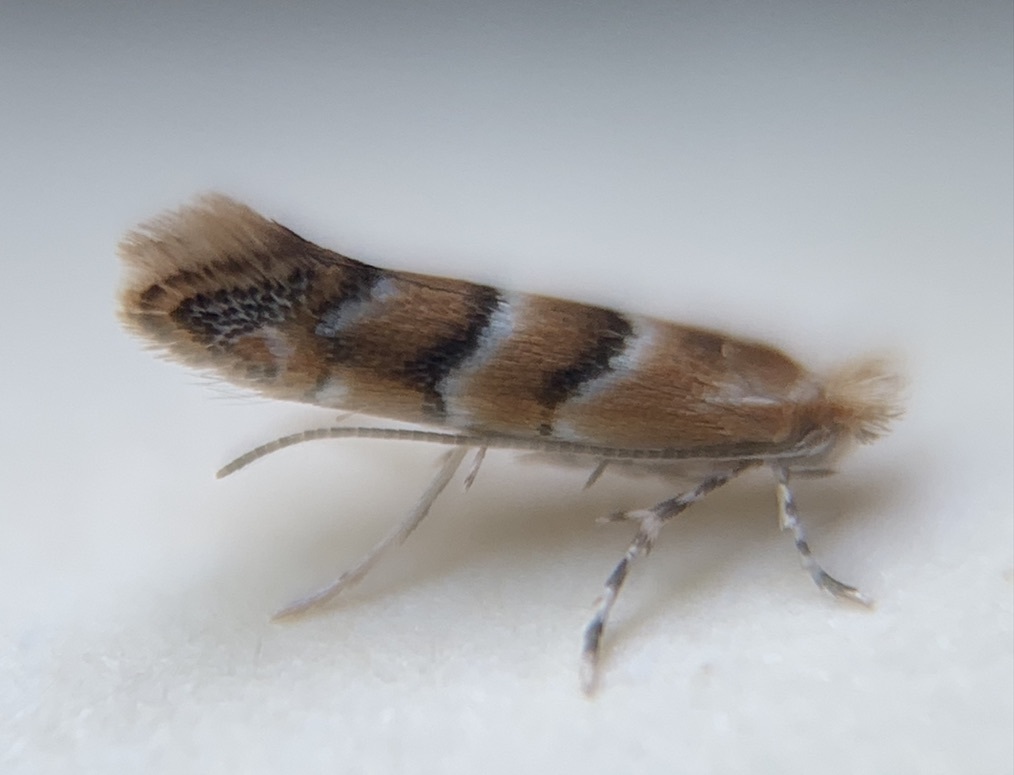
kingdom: Animalia
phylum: Arthropoda
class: Insecta
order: Lepidoptera
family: Gracillariidae
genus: Cameraria
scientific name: Cameraria caryaefoliella
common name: Pecan leafminer moth
